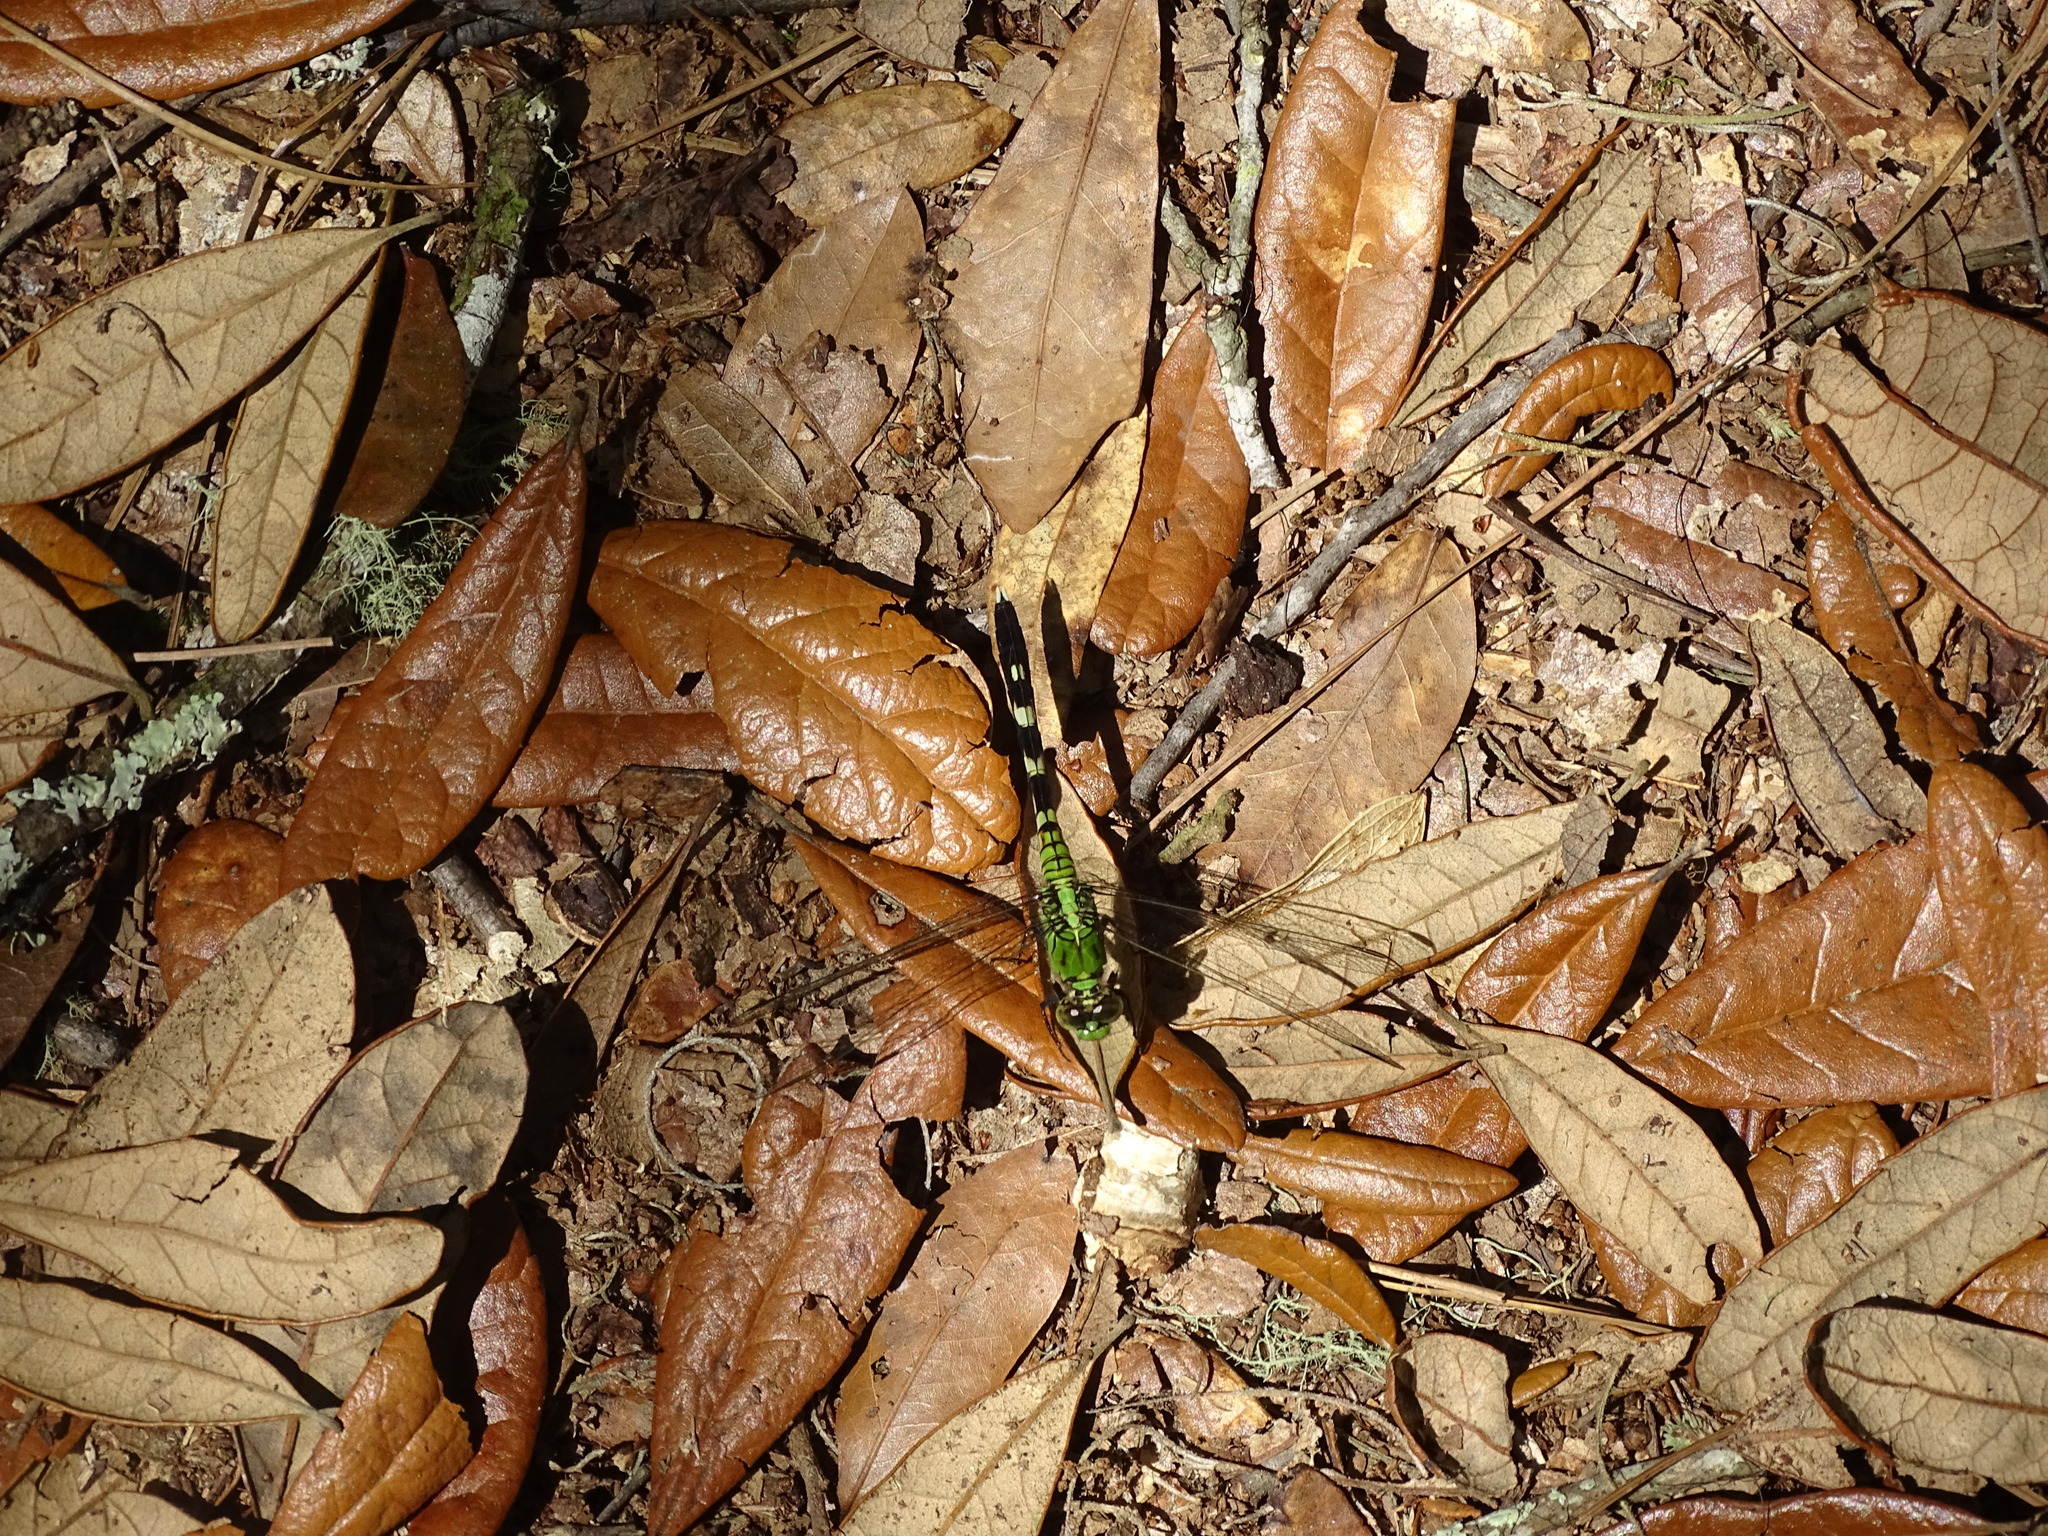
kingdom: Animalia
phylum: Arthropoda
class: Insecta
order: Odonata
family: Libellulidae
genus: Erythemis
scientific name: Erythemis simplicicollis
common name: Eastern pondhawk
